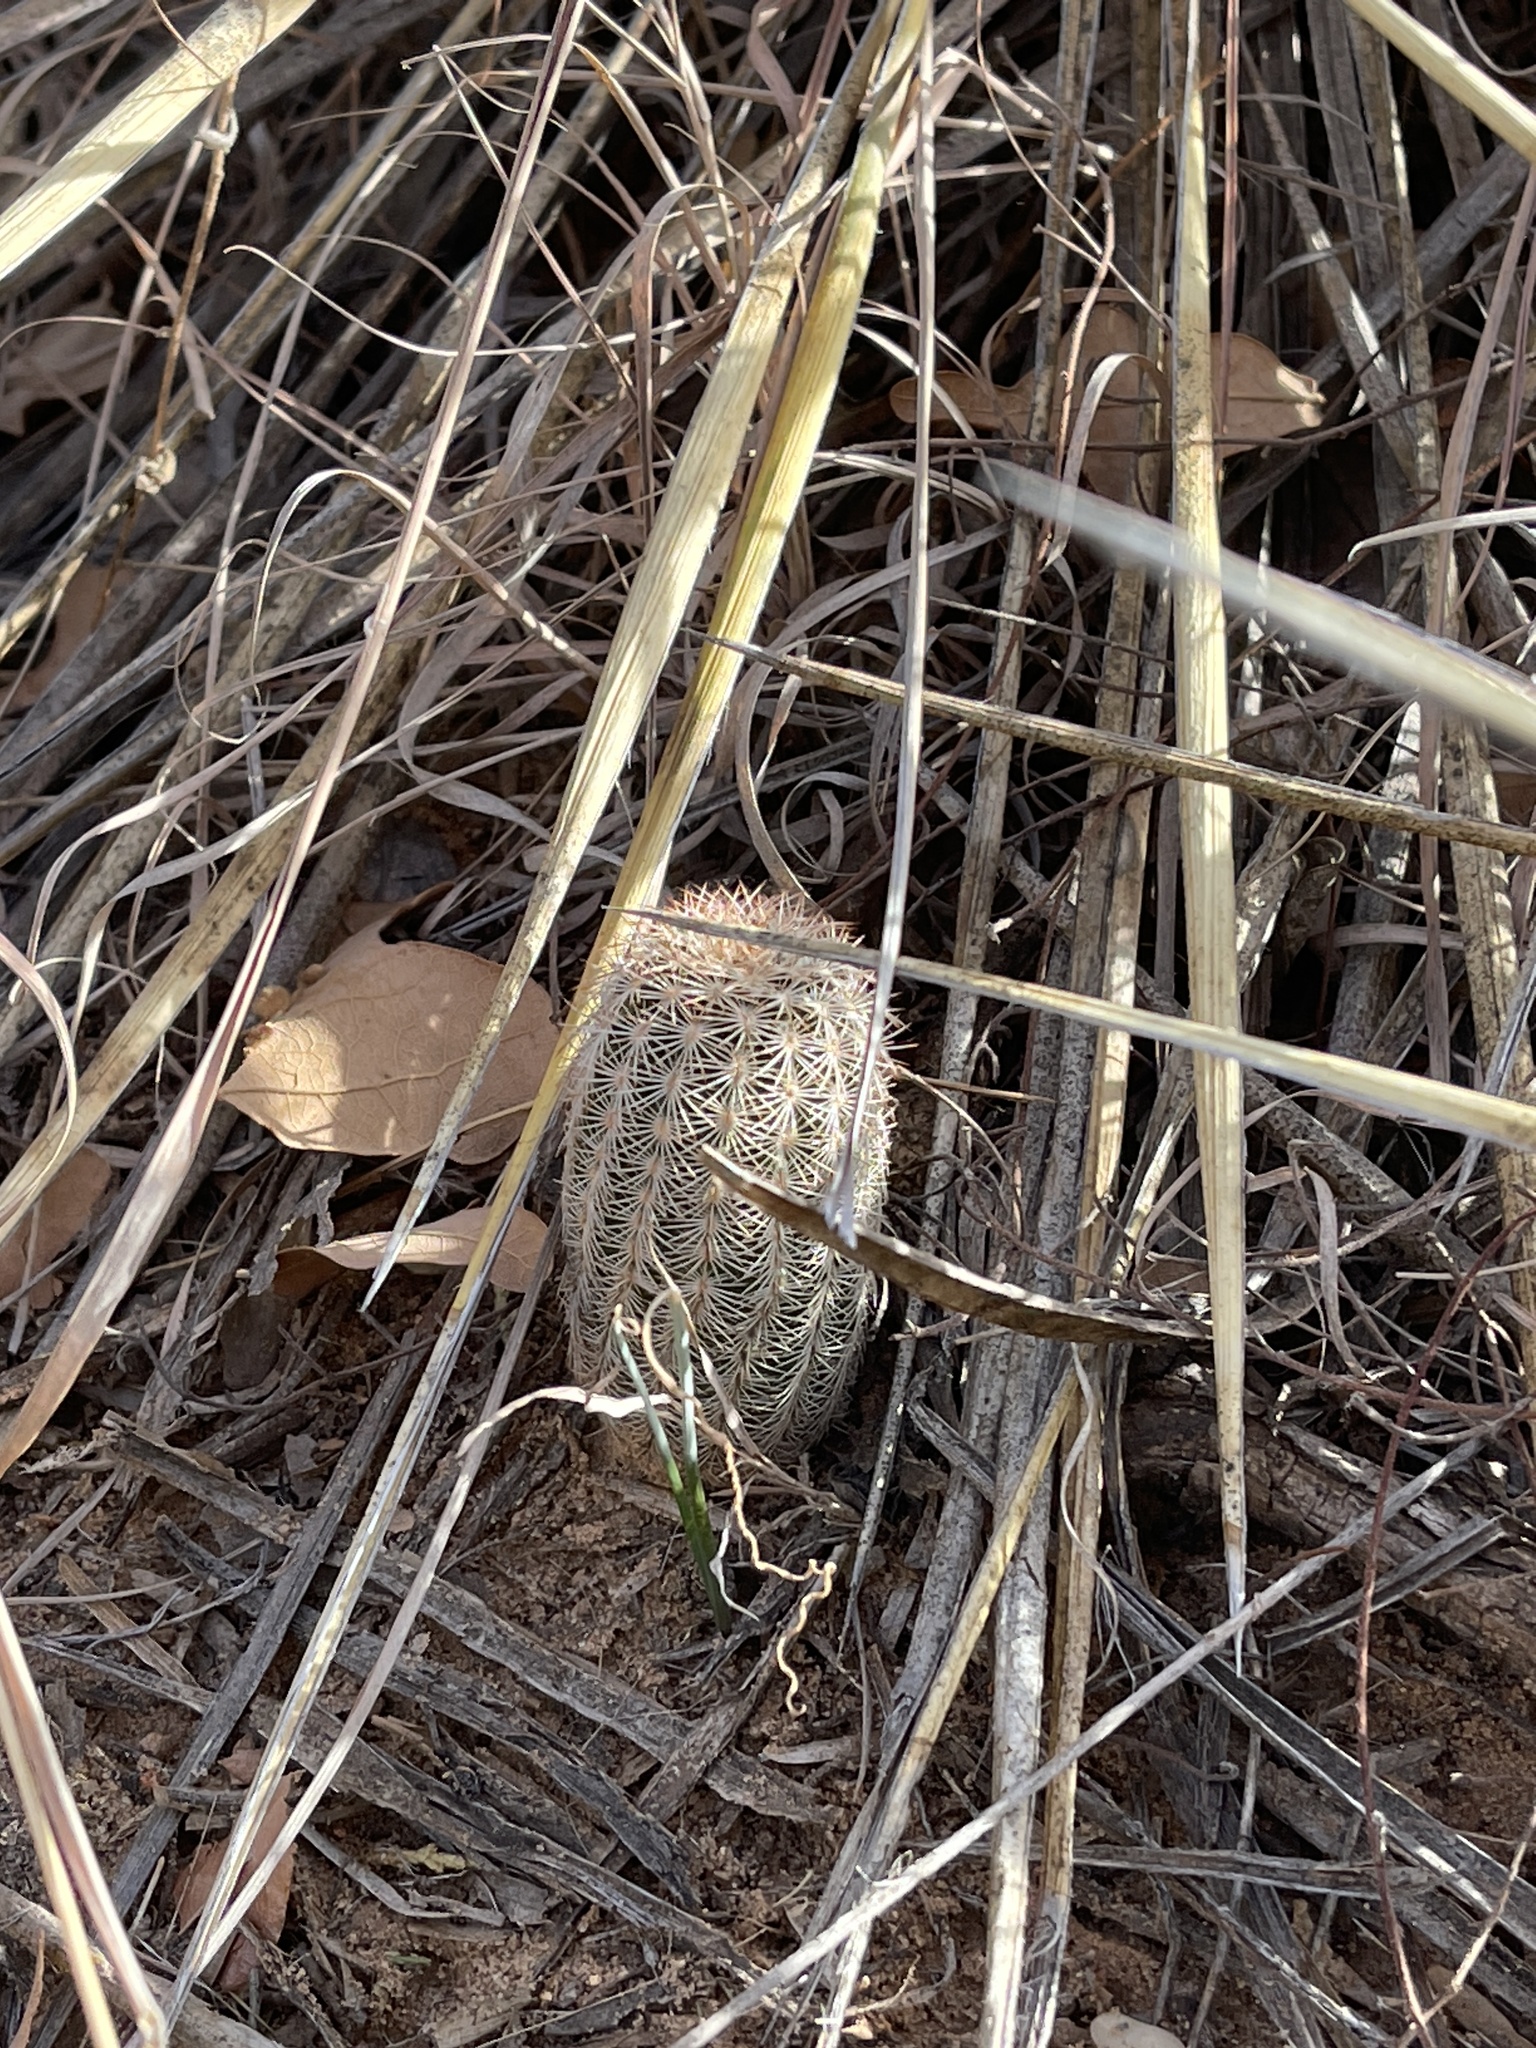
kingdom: Plantae
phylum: Tracheophyta
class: Magnoliopsida
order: Caryophyllales
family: Cactaceae
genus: Echinocereus
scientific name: Echinocereus reichenbachii
